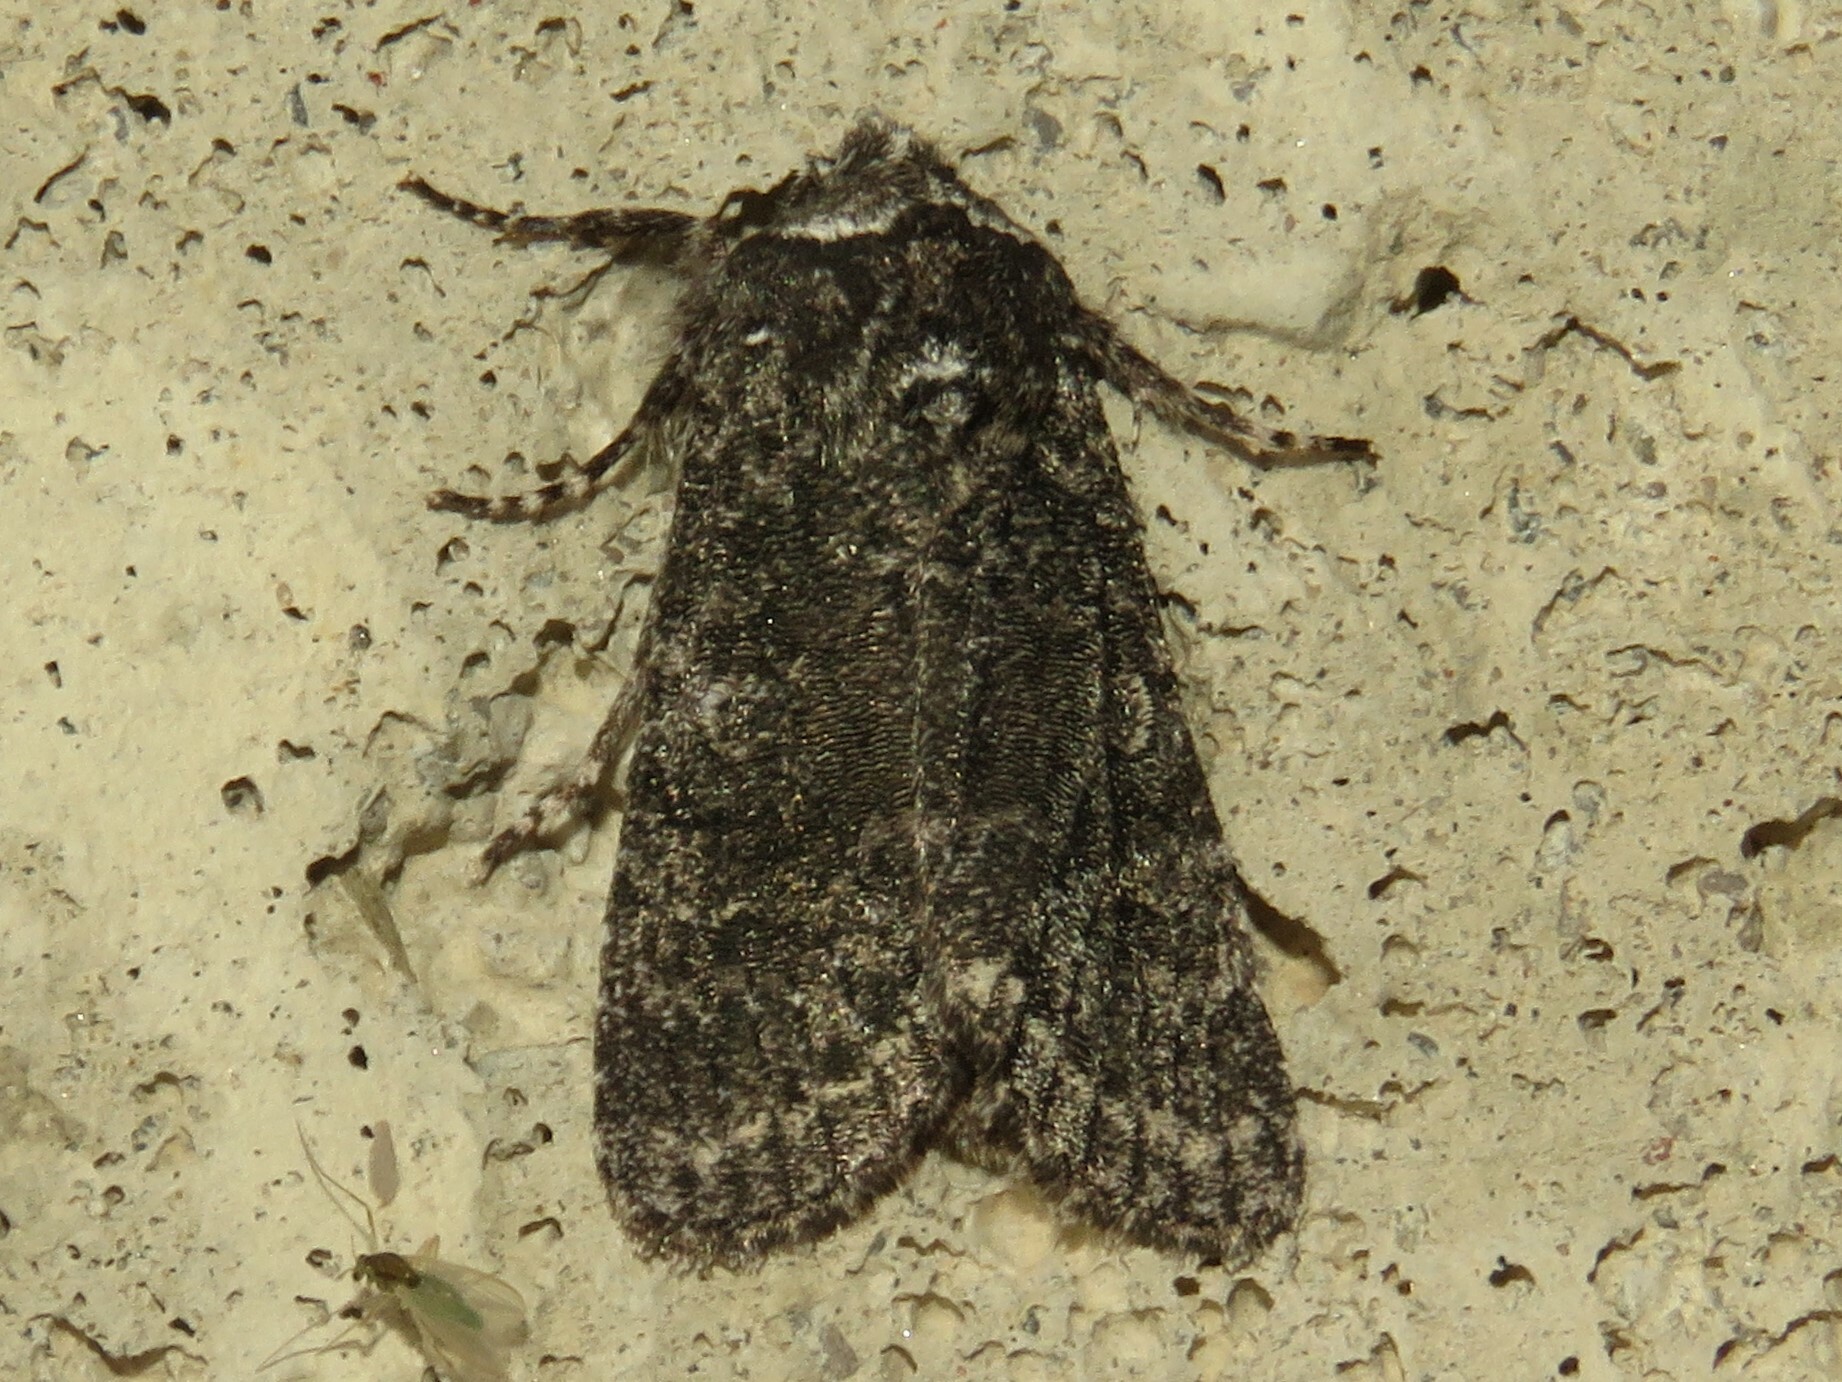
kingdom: Animalia
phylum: Arthropoda
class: Insecta
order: Lepidoptera
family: Noctuidae
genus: Egira
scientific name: Egira dolosa
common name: Lined black aspen cat.
